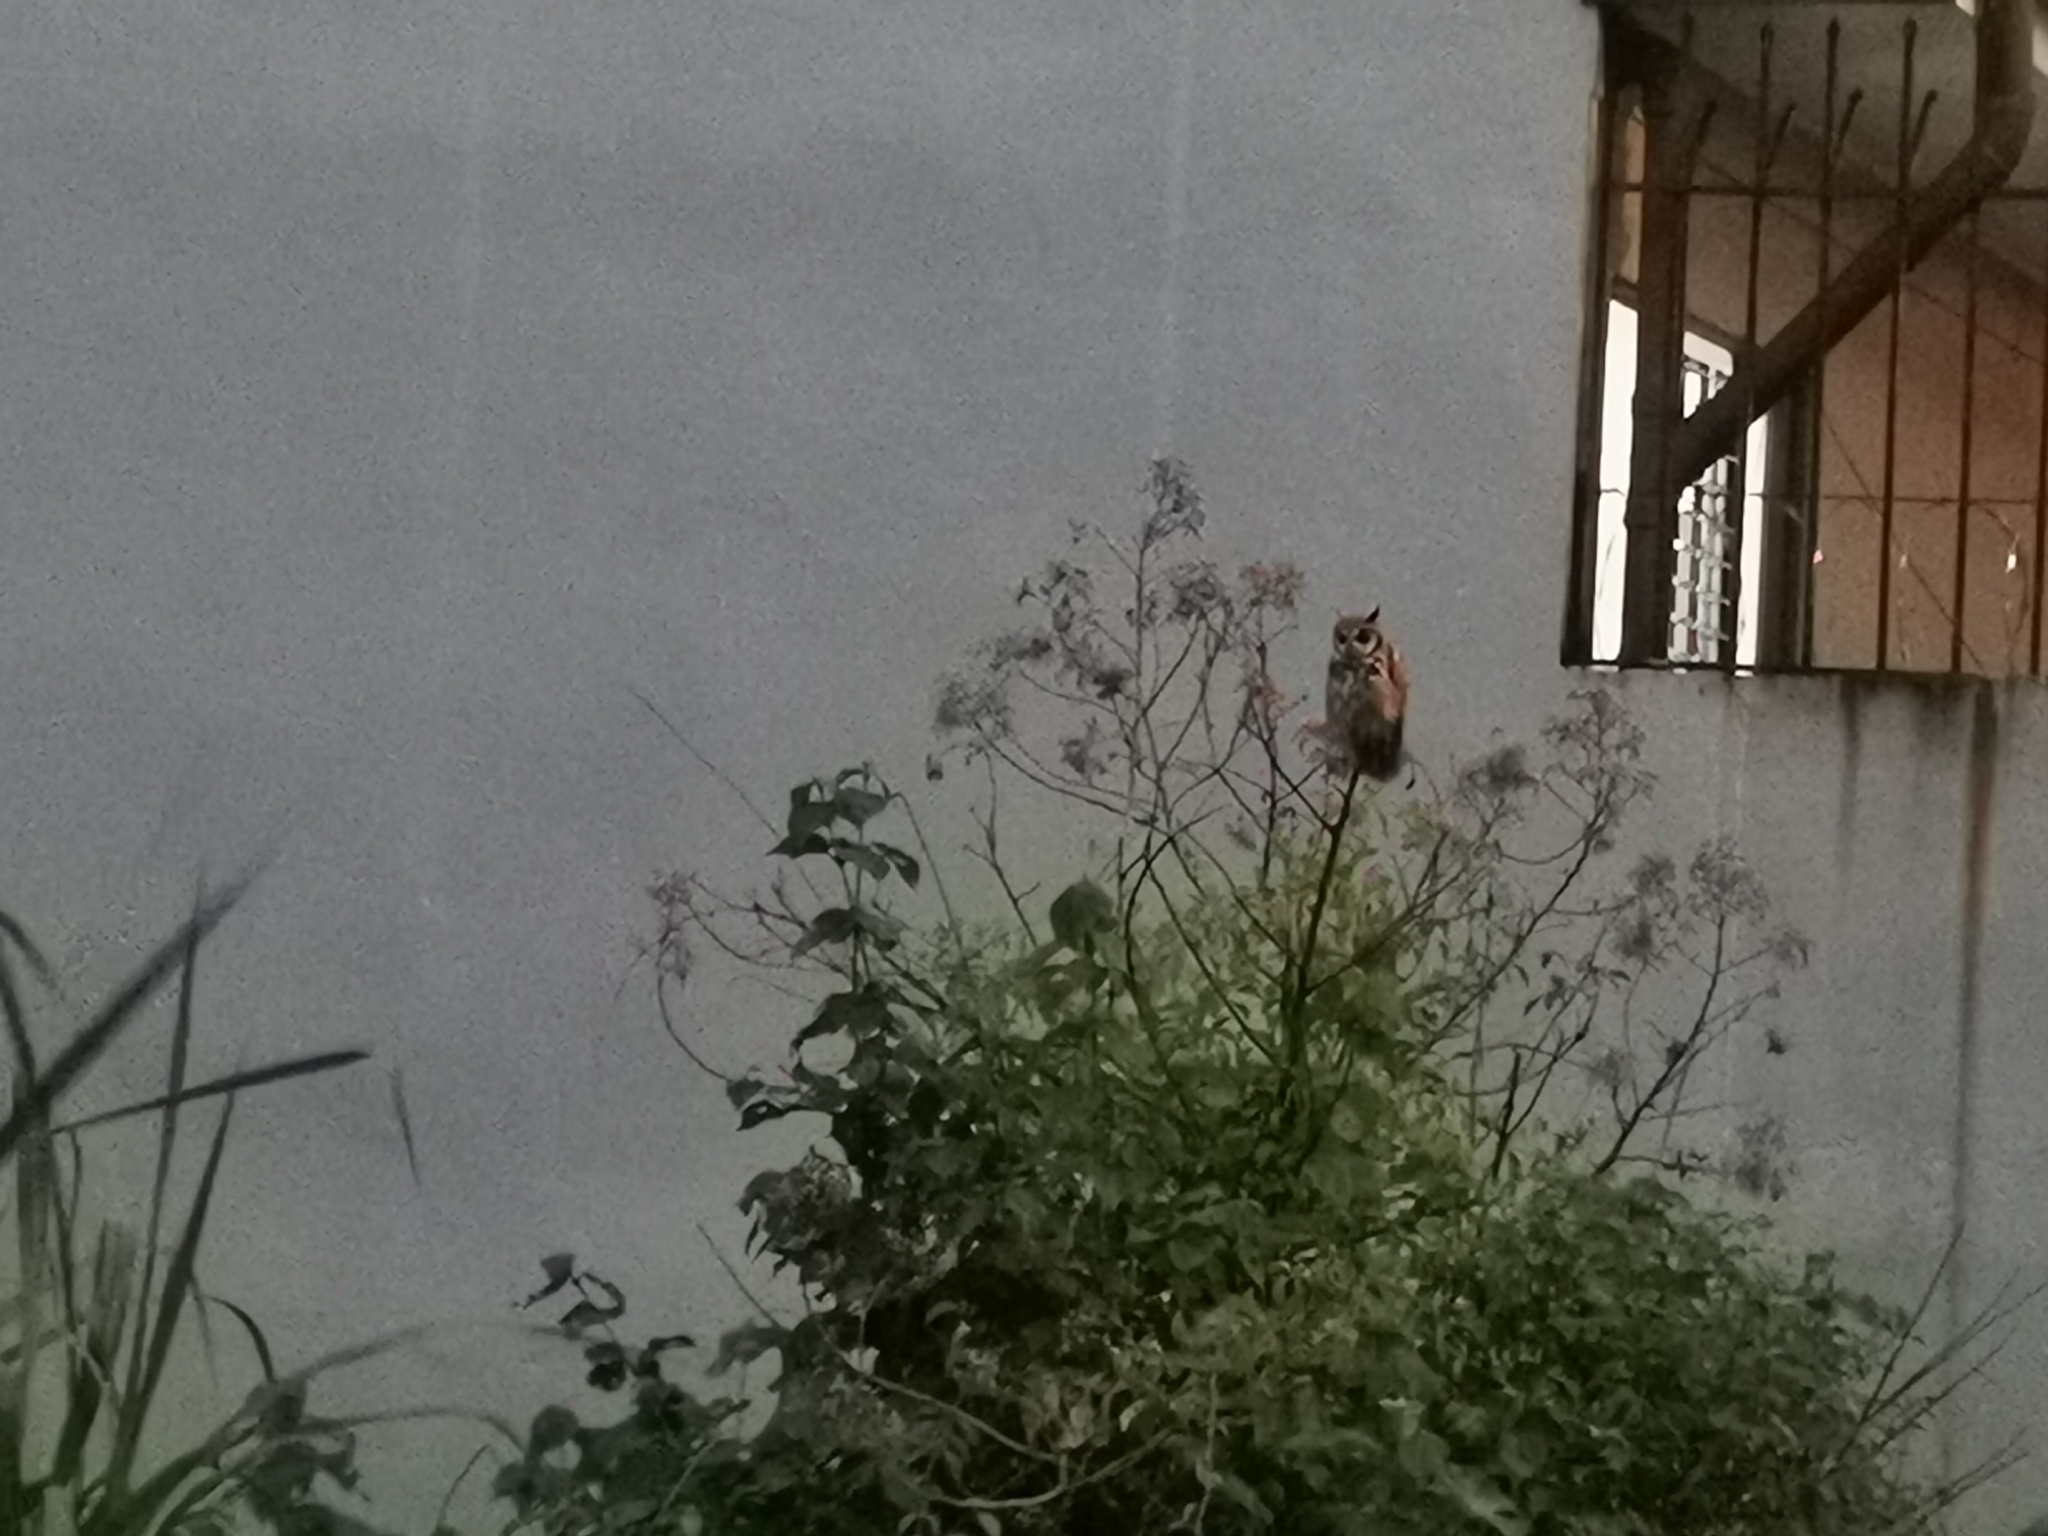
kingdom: Animalia
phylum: Chordata
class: Aves
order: Strigiformes
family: Strigidae
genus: Pseudoscops
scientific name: Pseudoscops clamator
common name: Striped owl
